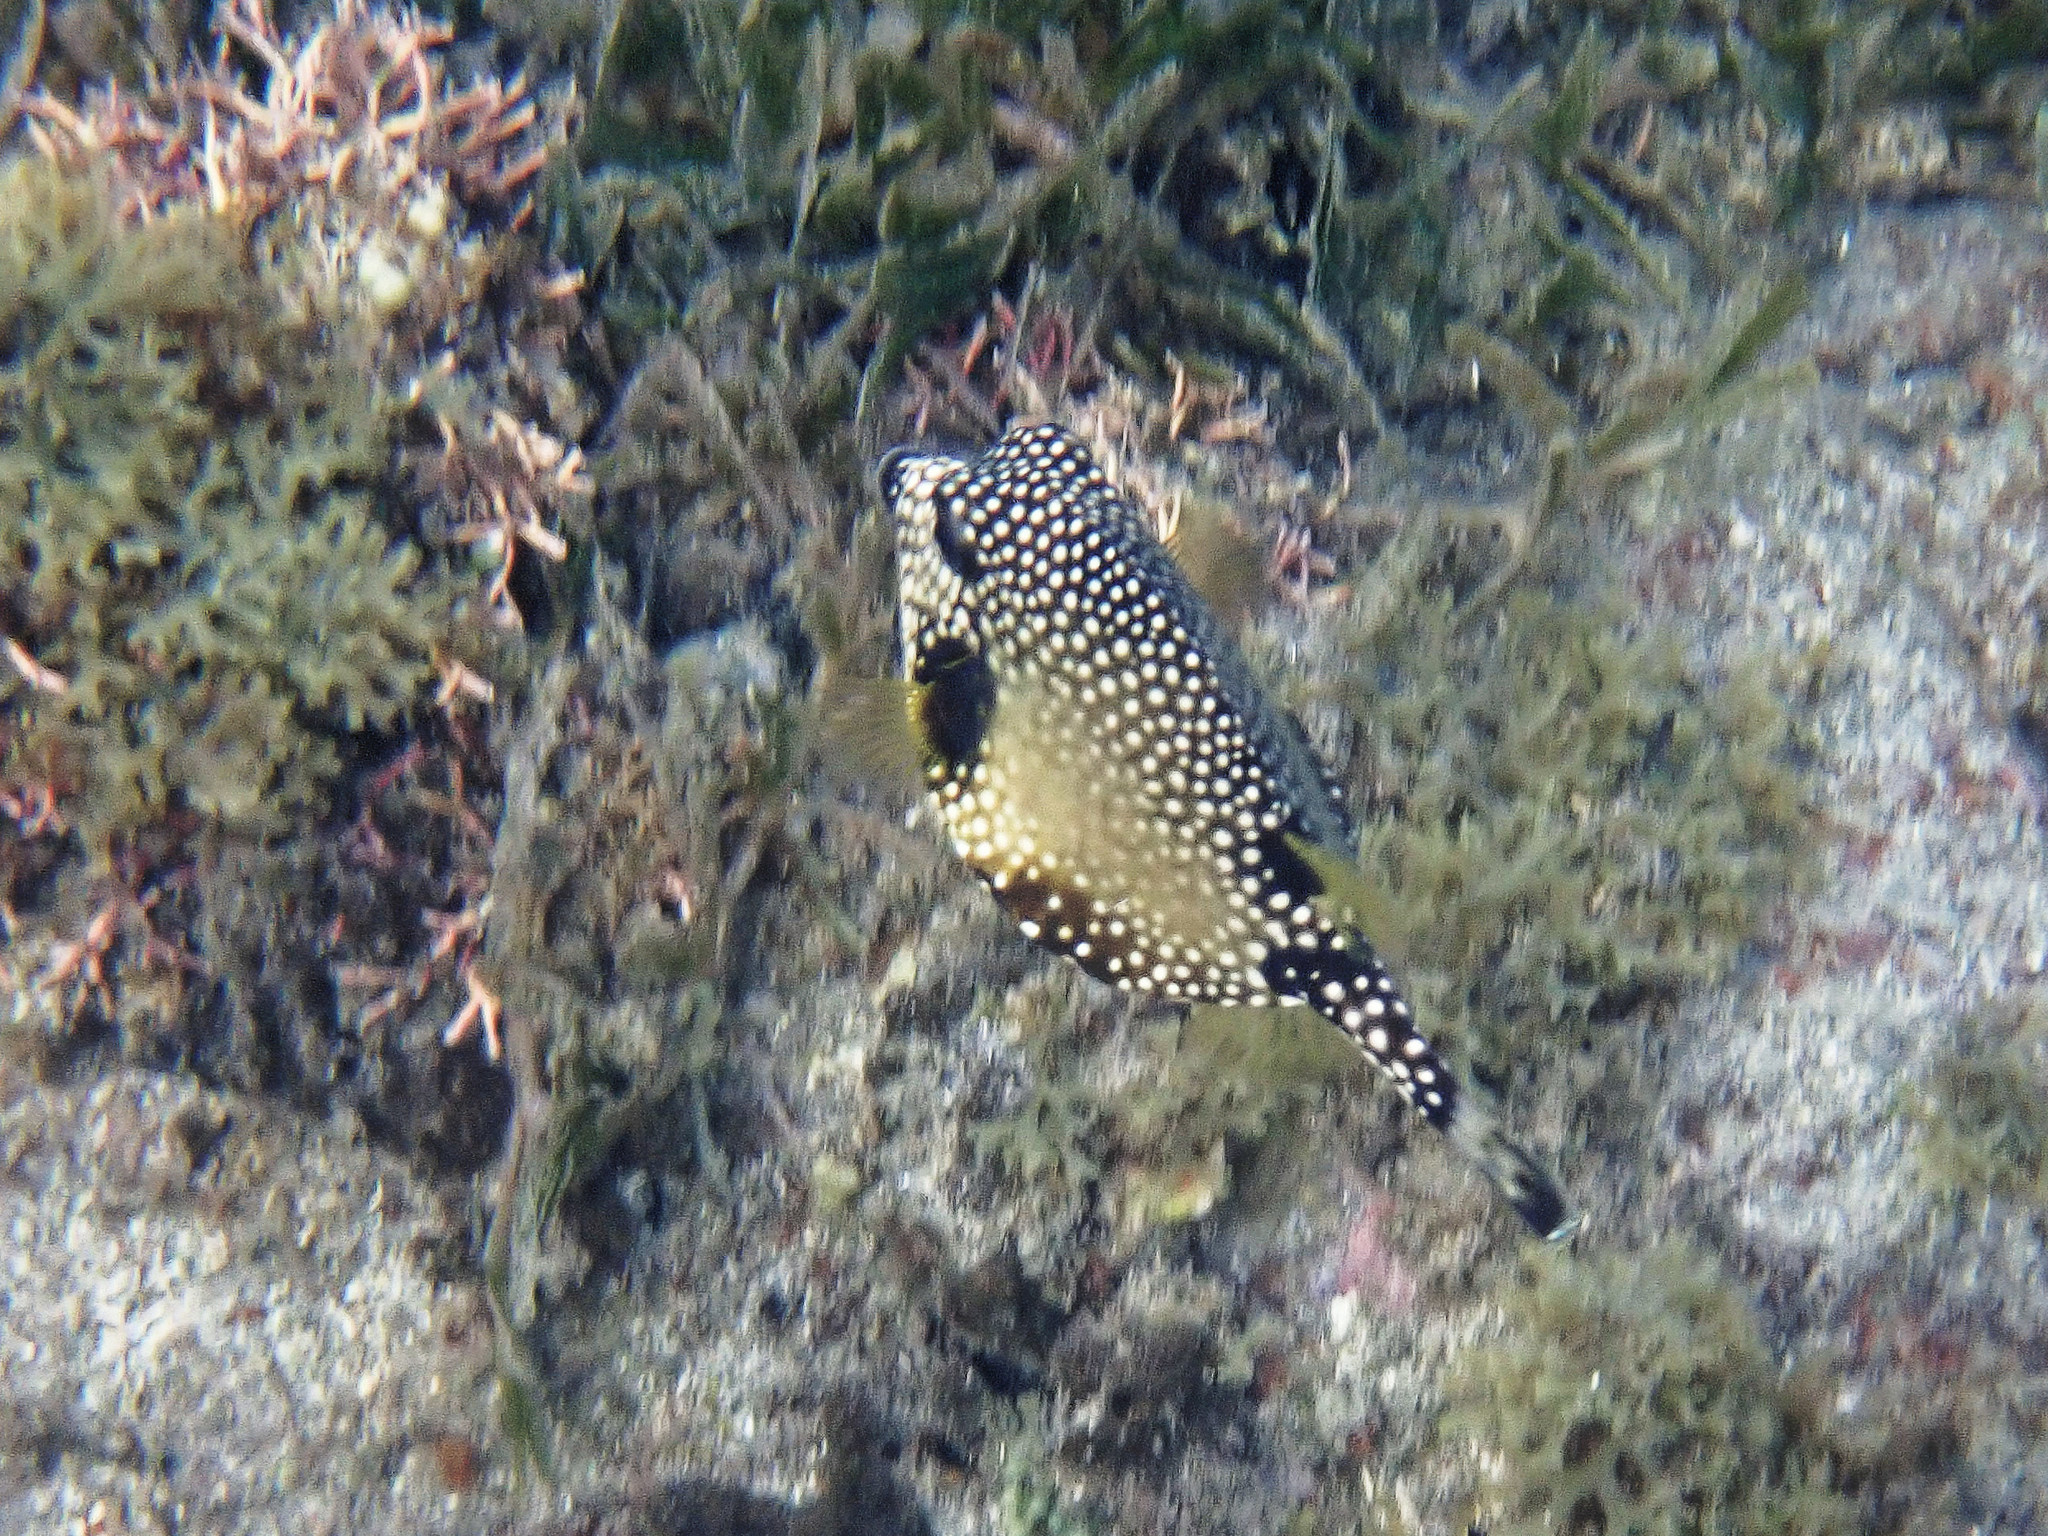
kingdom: Animalia
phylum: Chordata
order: Tetraodontiformes
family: Ostraciidae
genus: Lactophrys
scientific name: Lactophrys triqueter
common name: Smooth trunkfish
